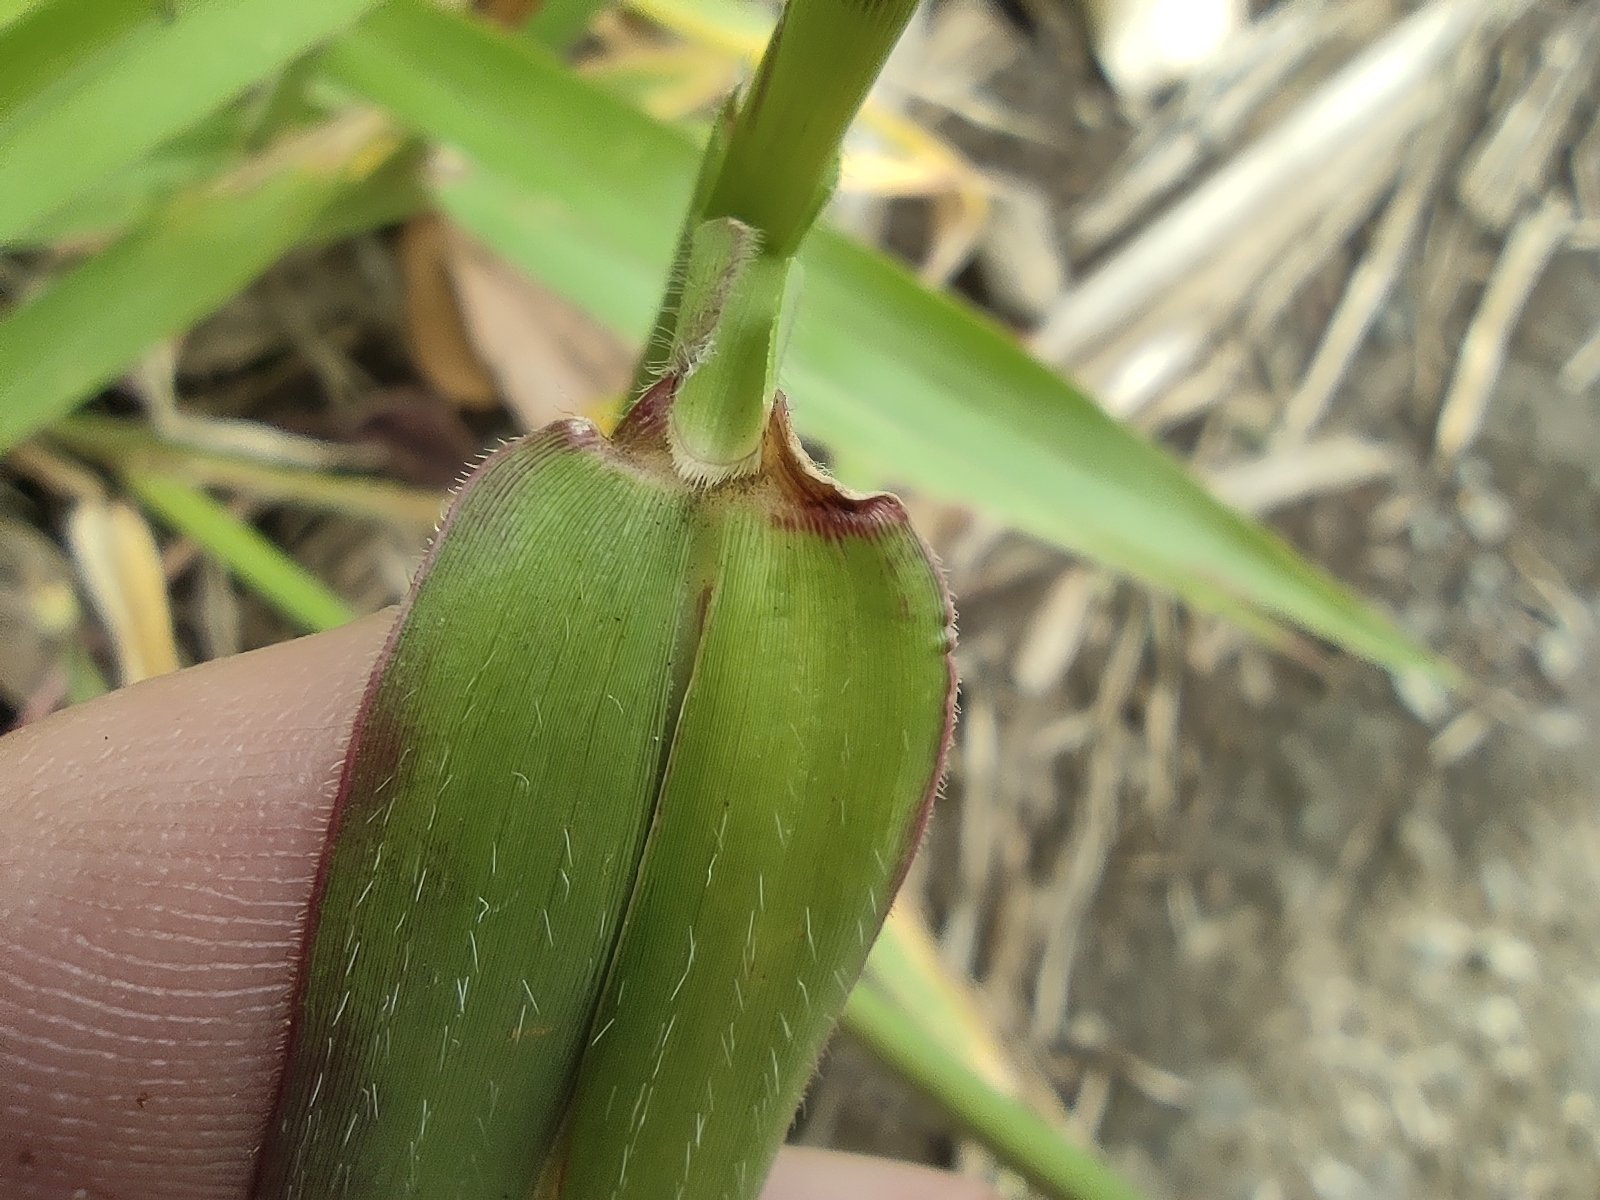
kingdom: Plantae
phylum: Tracheophyta
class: Liliopsida
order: Poales
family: Poaceae
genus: Urochloa
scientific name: Urochloa eminii
